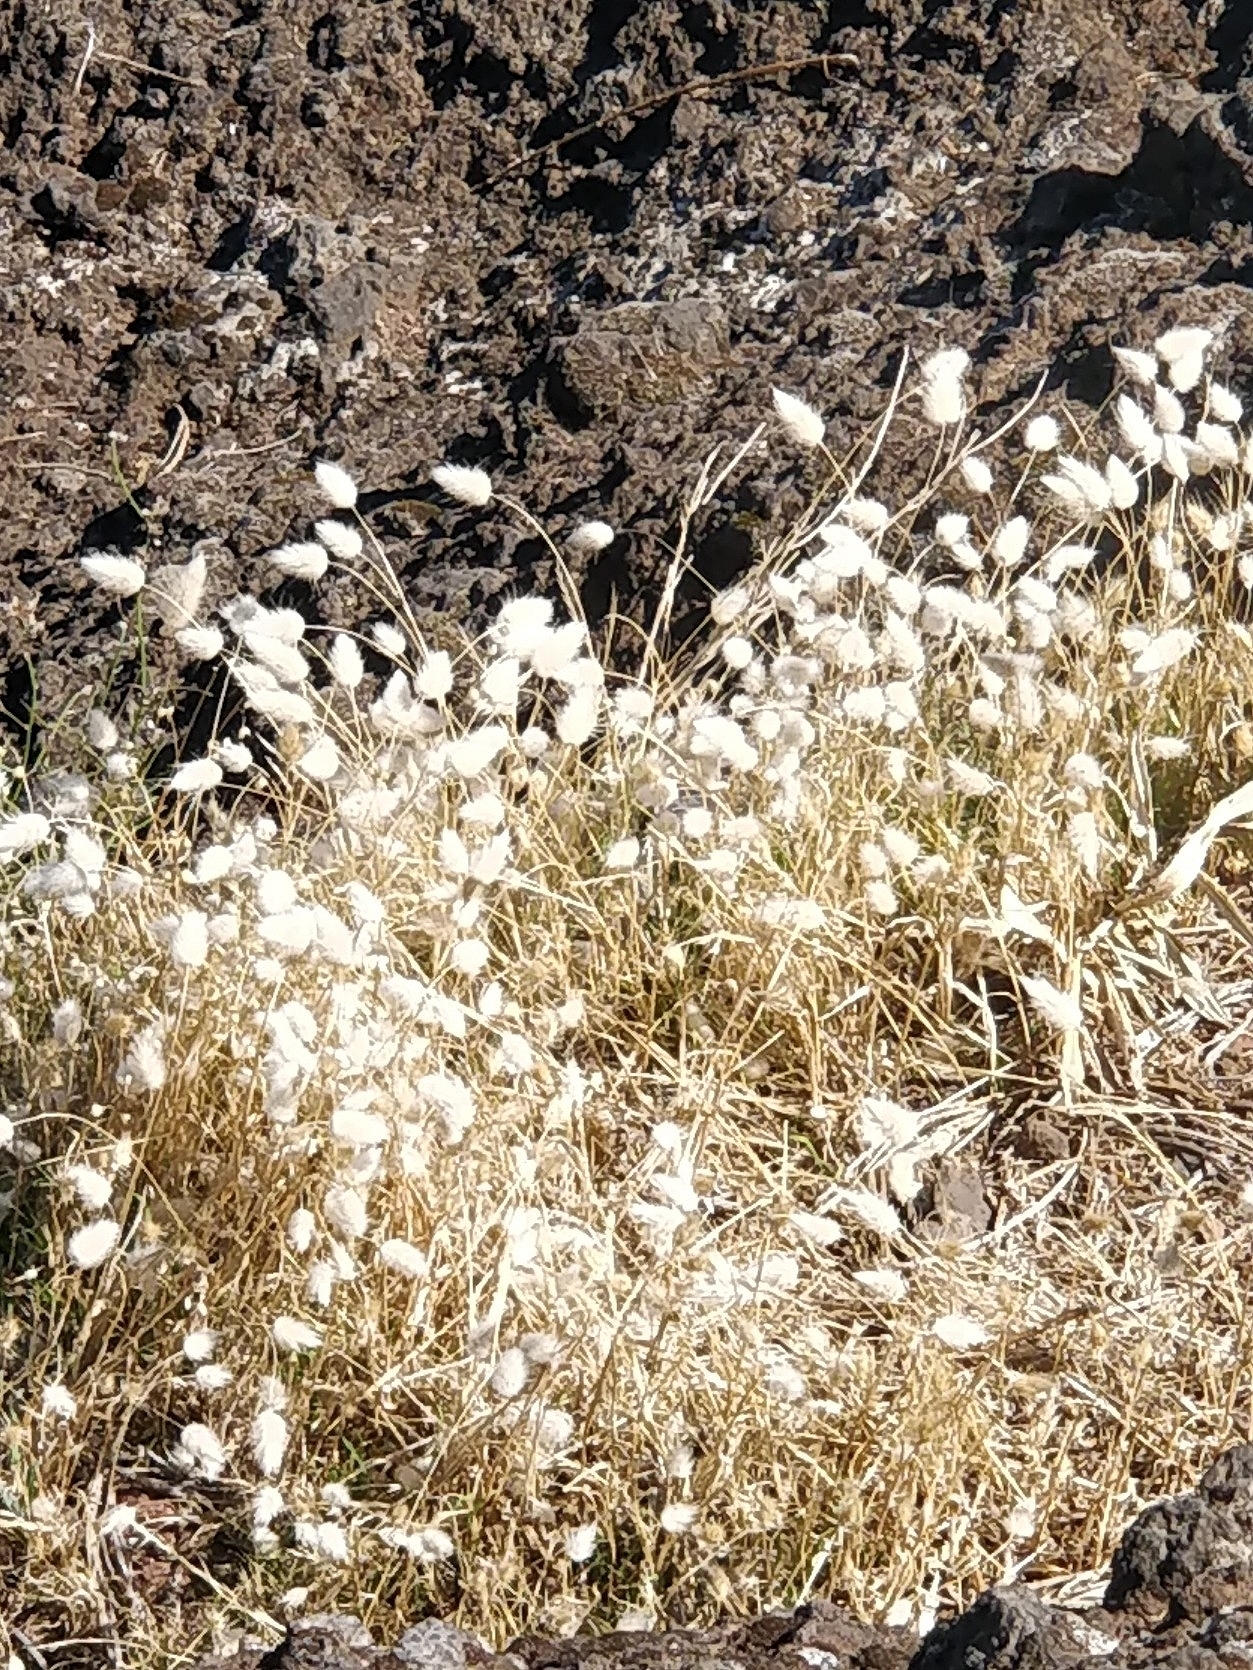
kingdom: Plantae
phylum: Tracheophyta
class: Liliopsida
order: Poales
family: Poaceae
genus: Lagurus
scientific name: Lagurus ovatus
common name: Hare's-tail
